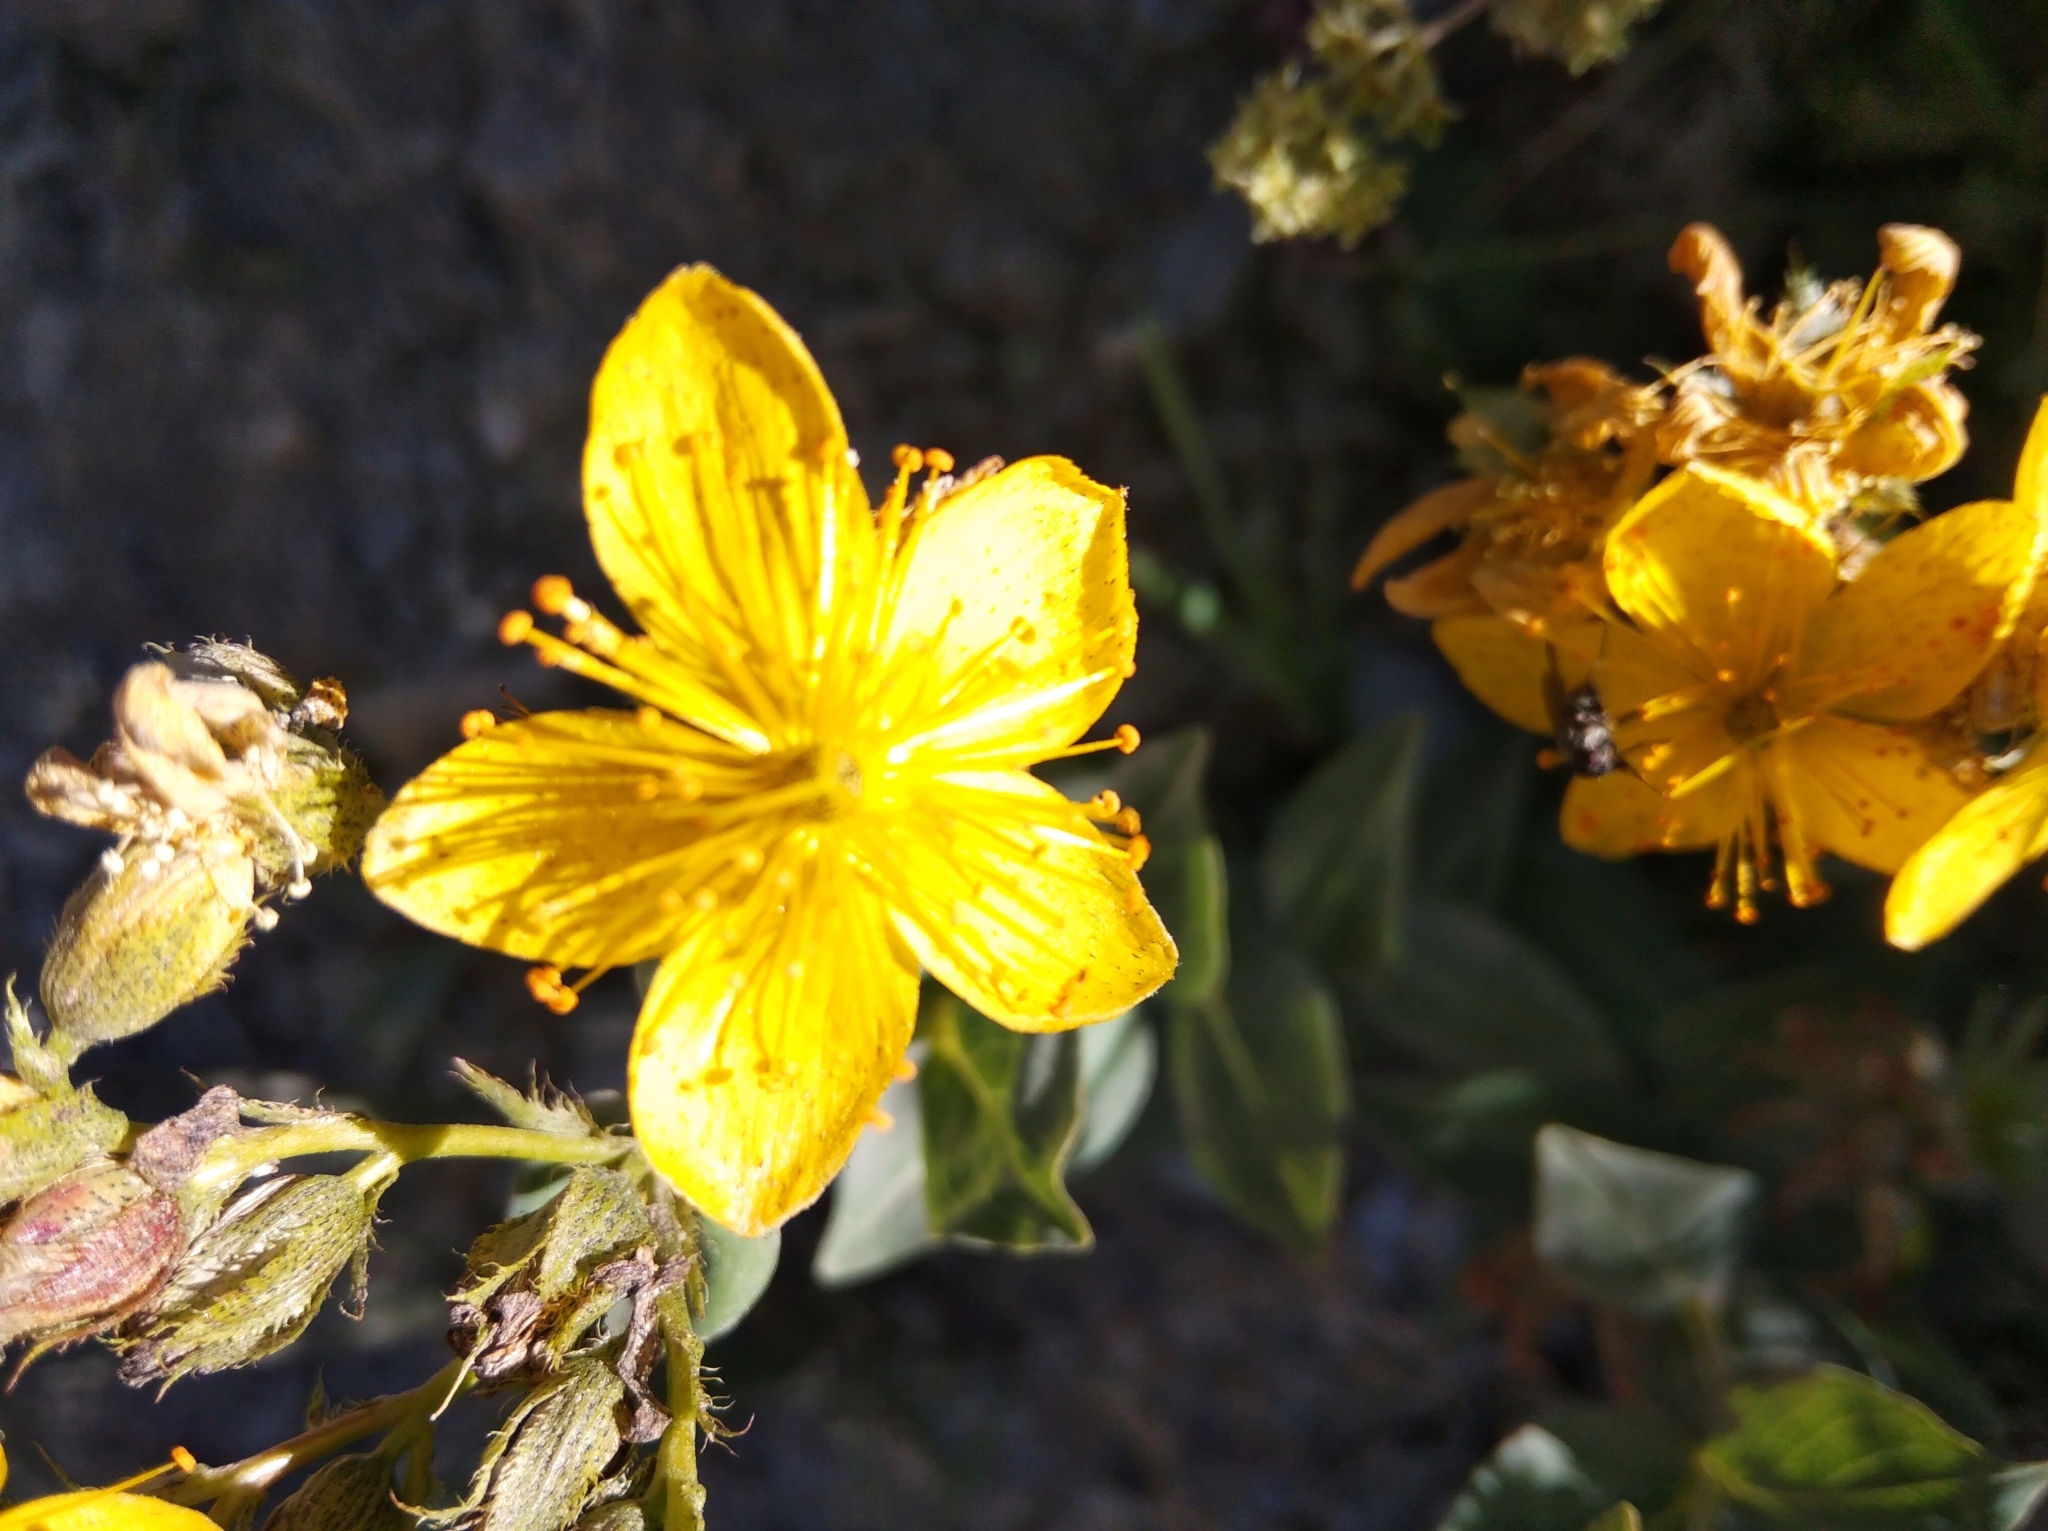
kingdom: Plantae
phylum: Tracheophyta
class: Magnoliopsida
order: Malpighiales
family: Hypericaceae
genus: Hypericum
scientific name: Hypericum richeri
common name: Alpine st john's-wort
